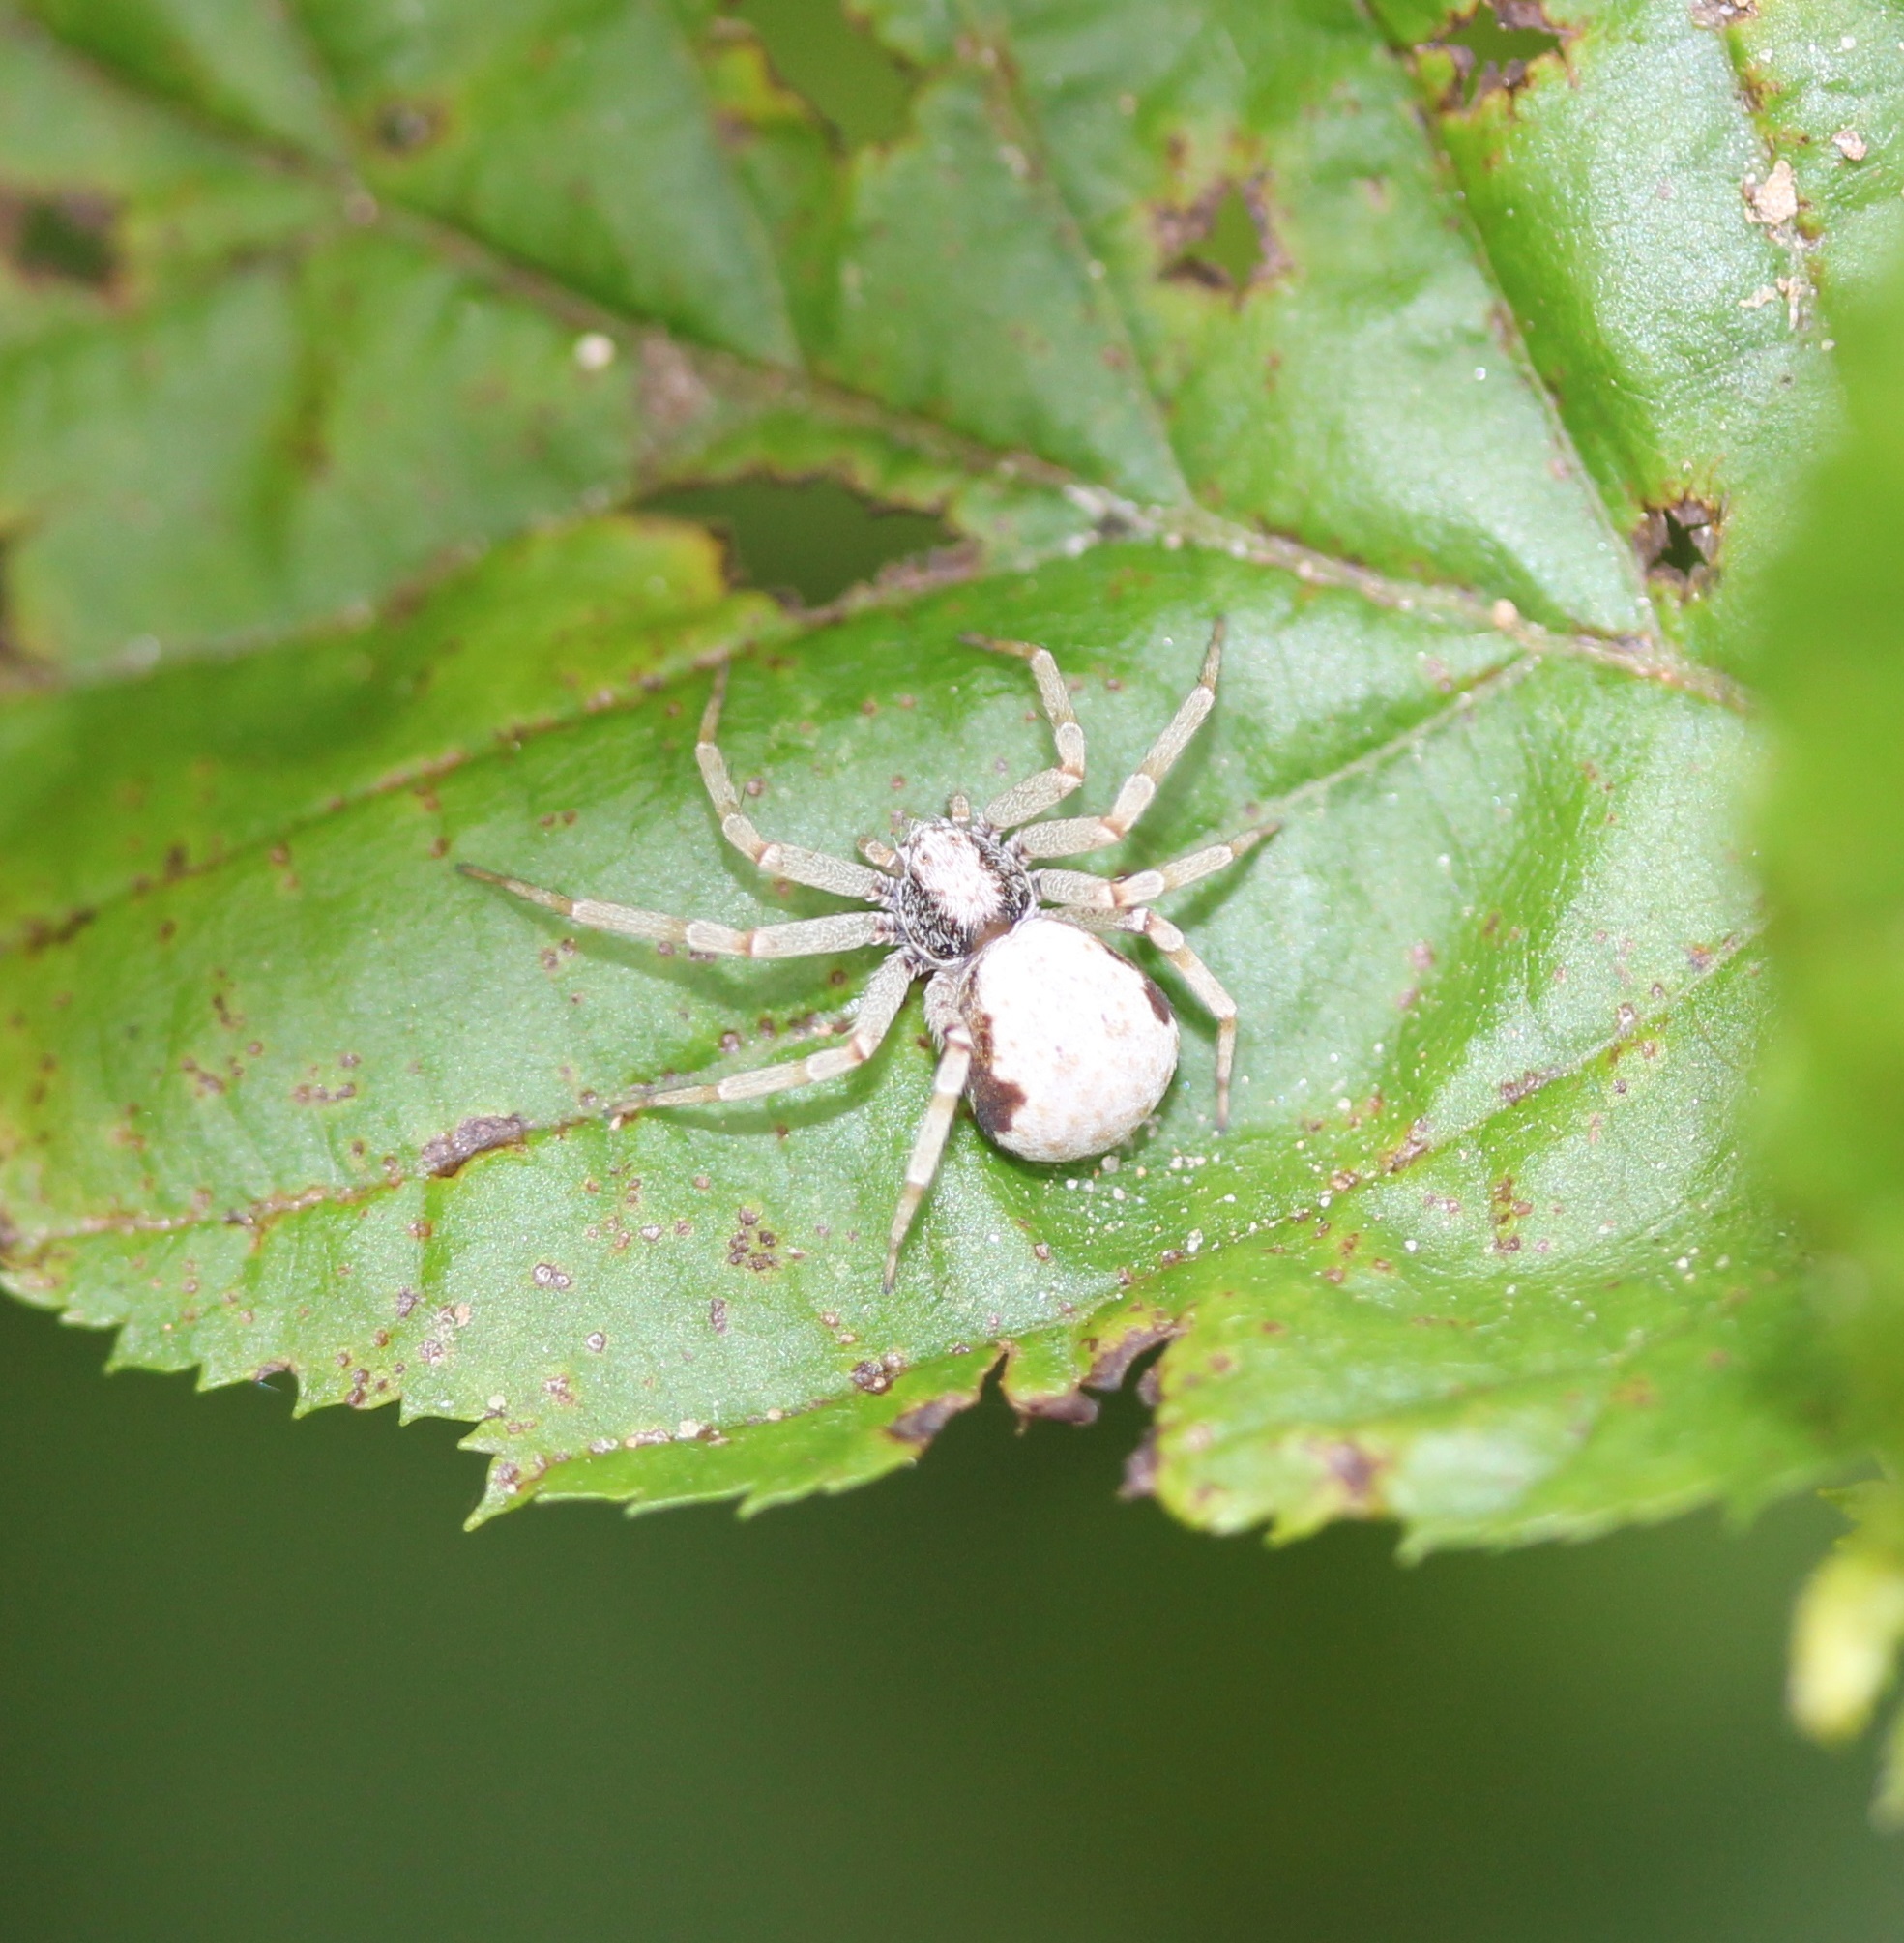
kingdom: Animalia
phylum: Arthropoda
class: Arachnida
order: Araneae
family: Philodromidae
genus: Philodromus
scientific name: Philodromus marxi
